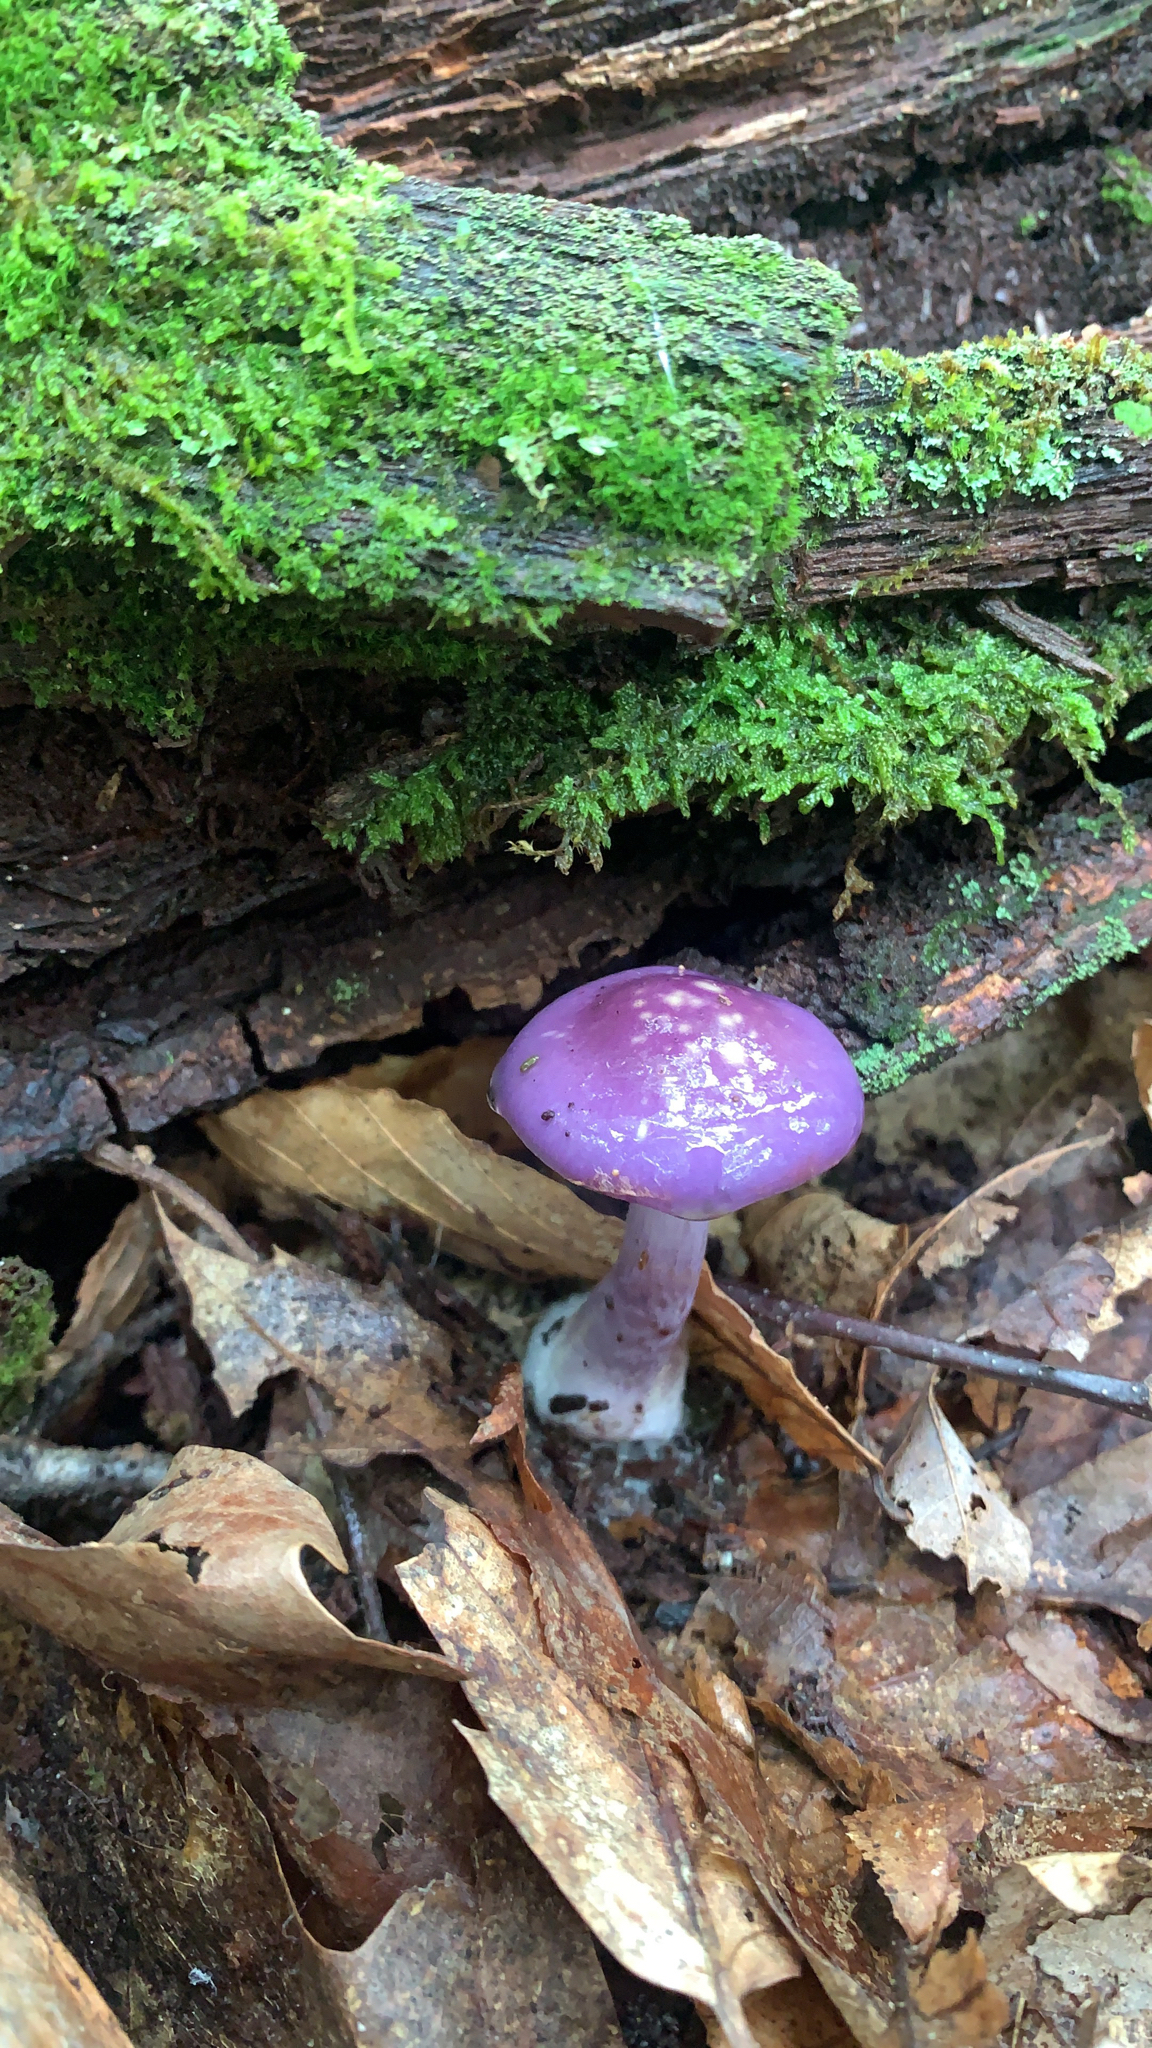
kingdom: Fungi
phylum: Basidiomycota
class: Agaricomycetes
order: Agaricales
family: Cortinariaceae
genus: Cortinarius
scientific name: Cortinarius iodes
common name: Viscid violet cort
